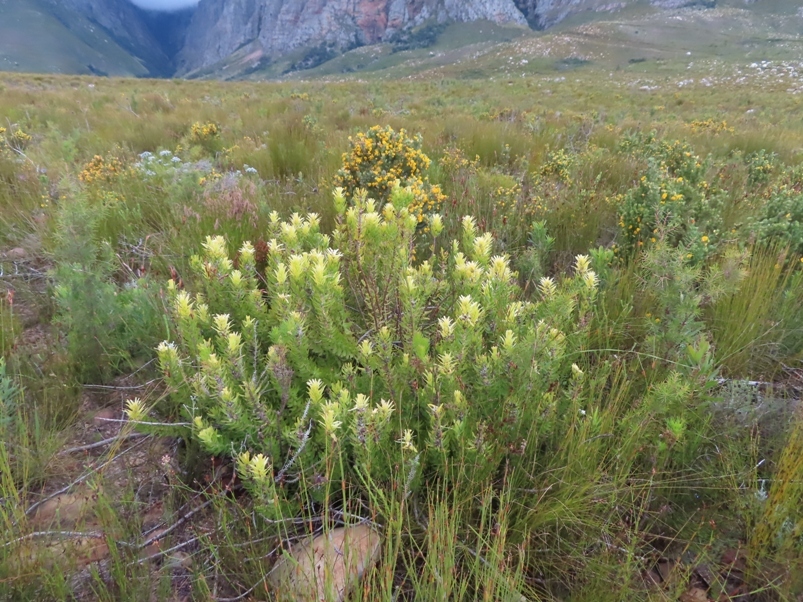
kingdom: Plantae
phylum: Tracheophyta
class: Magnoliopsida
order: Proteales
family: Proteaceae
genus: Mimetes
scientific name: Mimetes cucullatus
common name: Common pagoda
